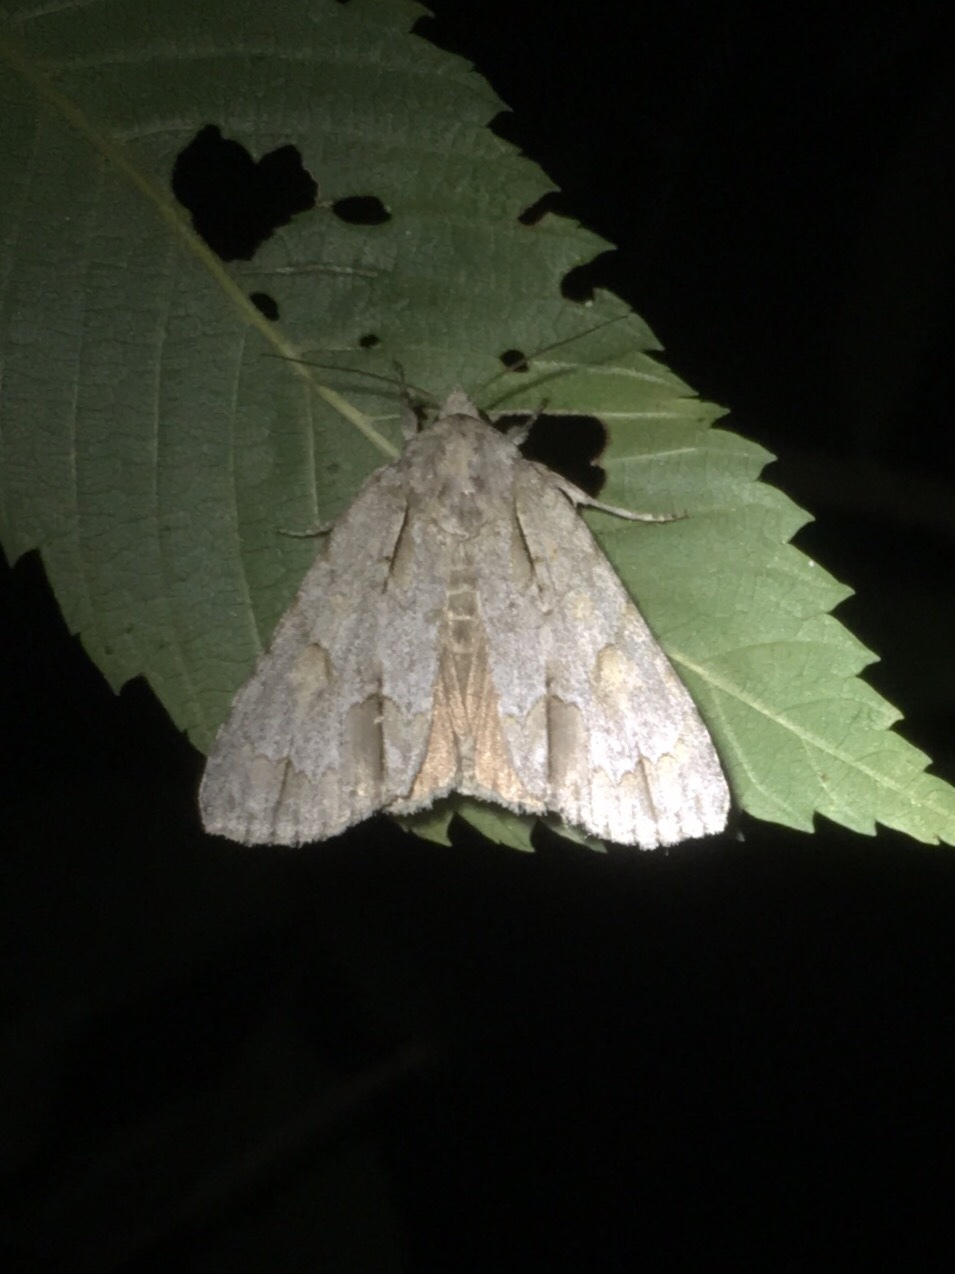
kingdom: Animalia
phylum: Arthropoda
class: Insecta
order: Lepidoptera
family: Noctuidae
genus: Acronicta
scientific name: Acronicta morula
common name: Ochre dagger
